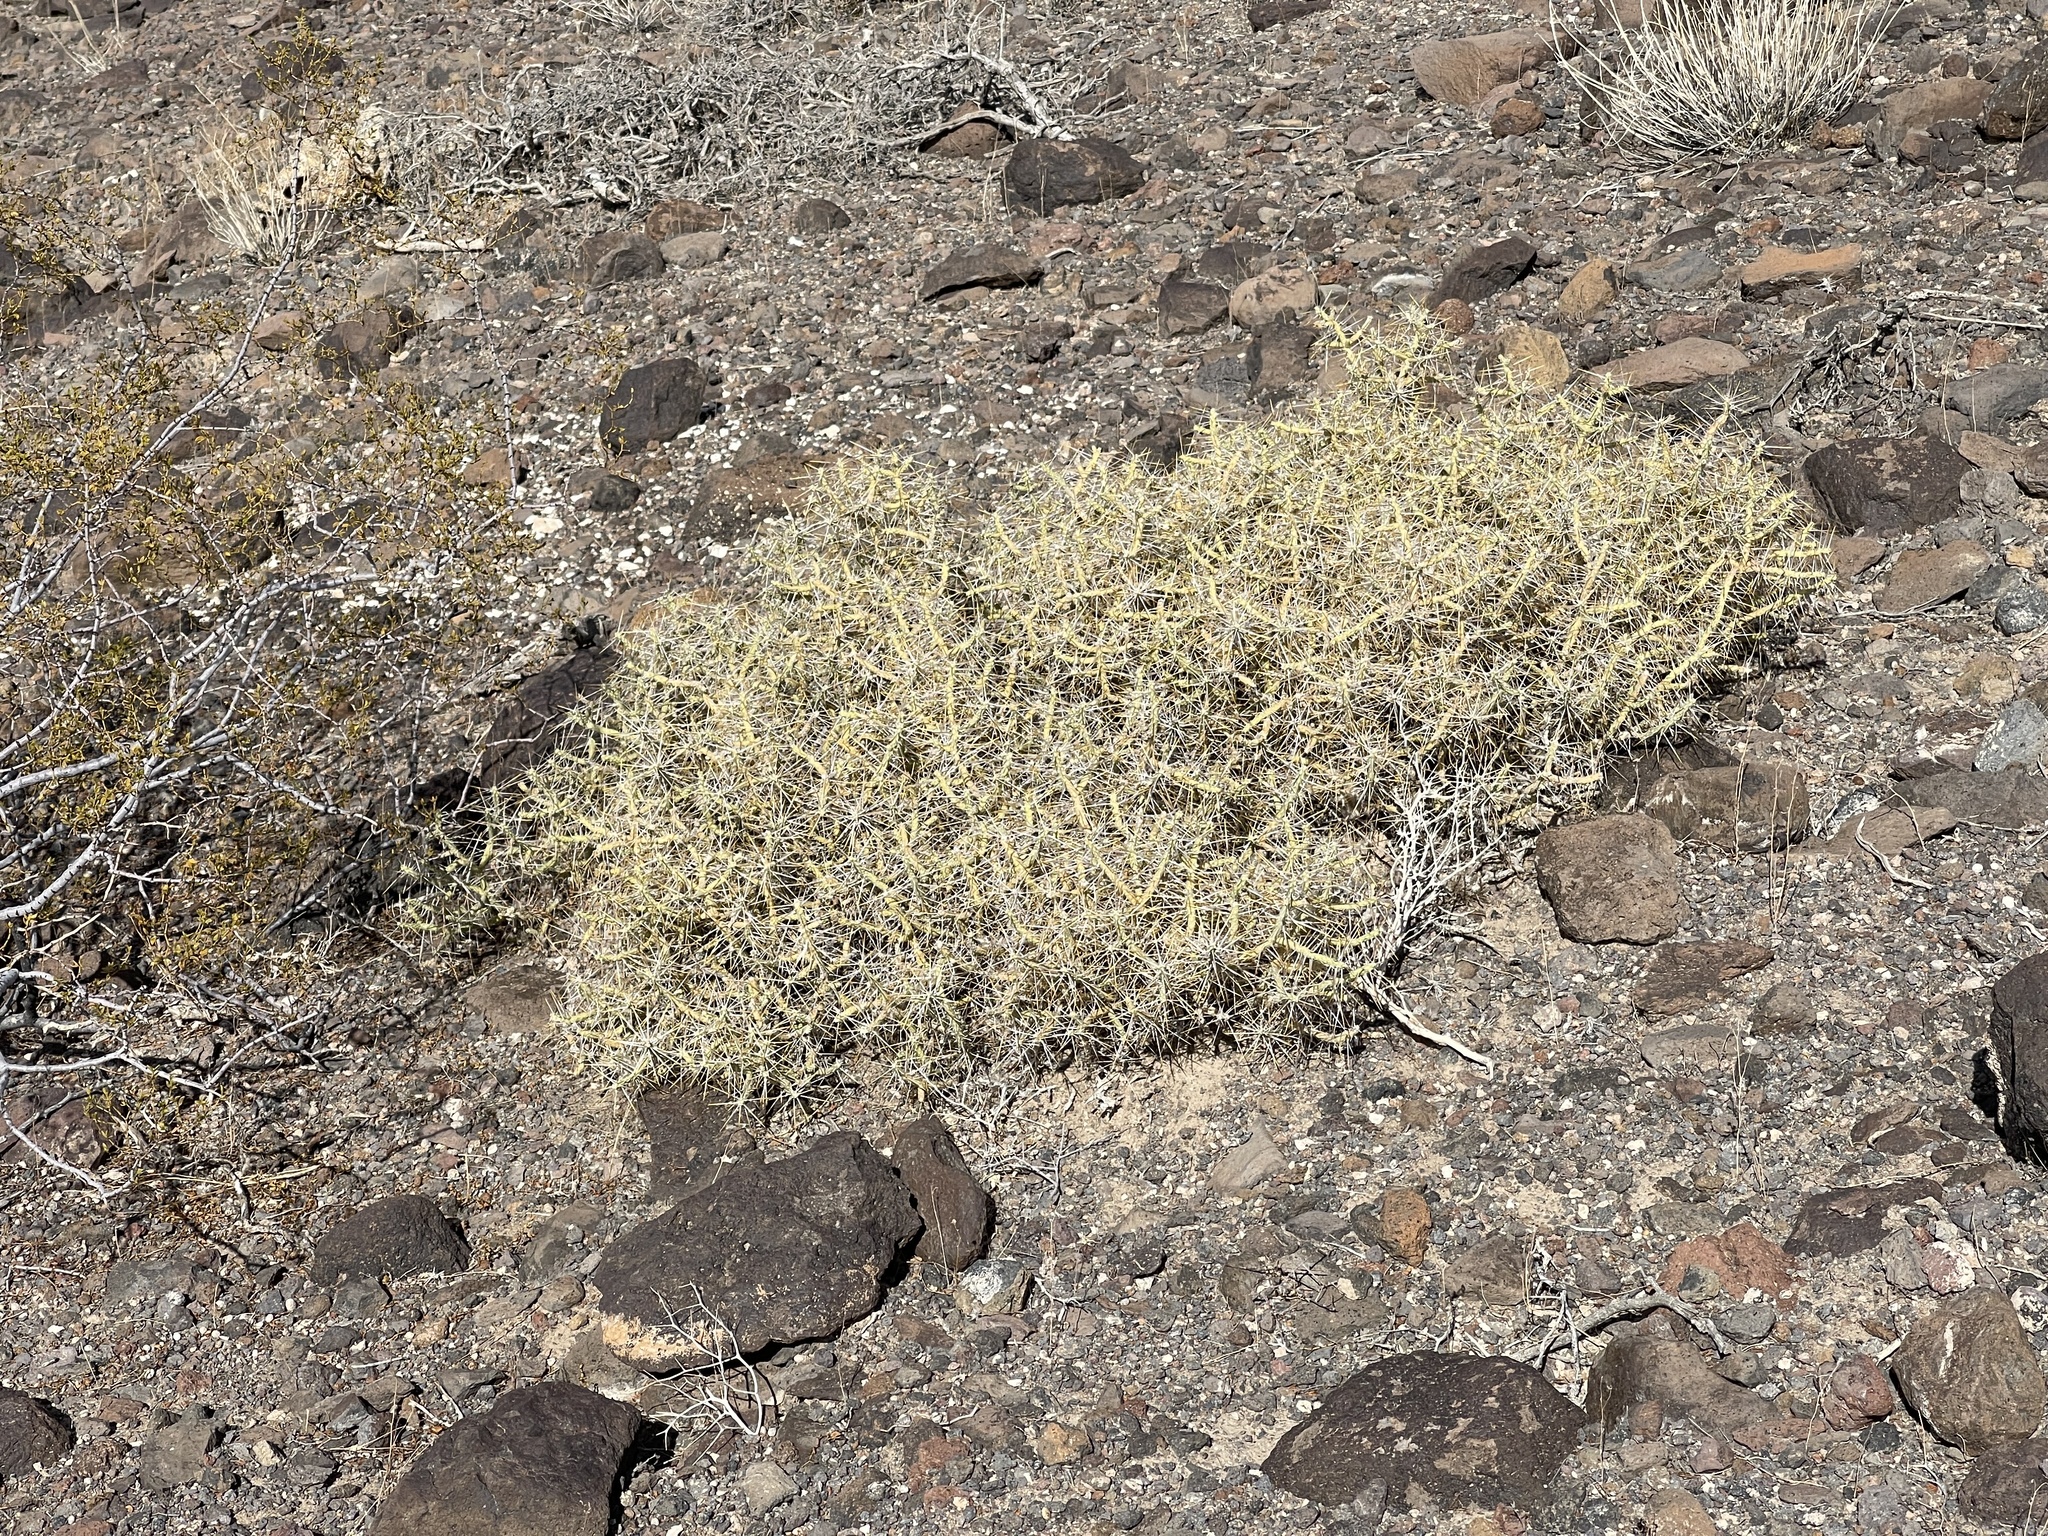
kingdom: Plantae
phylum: Tracheophyta
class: Magnoliopsida
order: Caryophyllales
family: Cactaceae
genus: Cylindropuntia
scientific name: Cylindropuntia ramosissima
